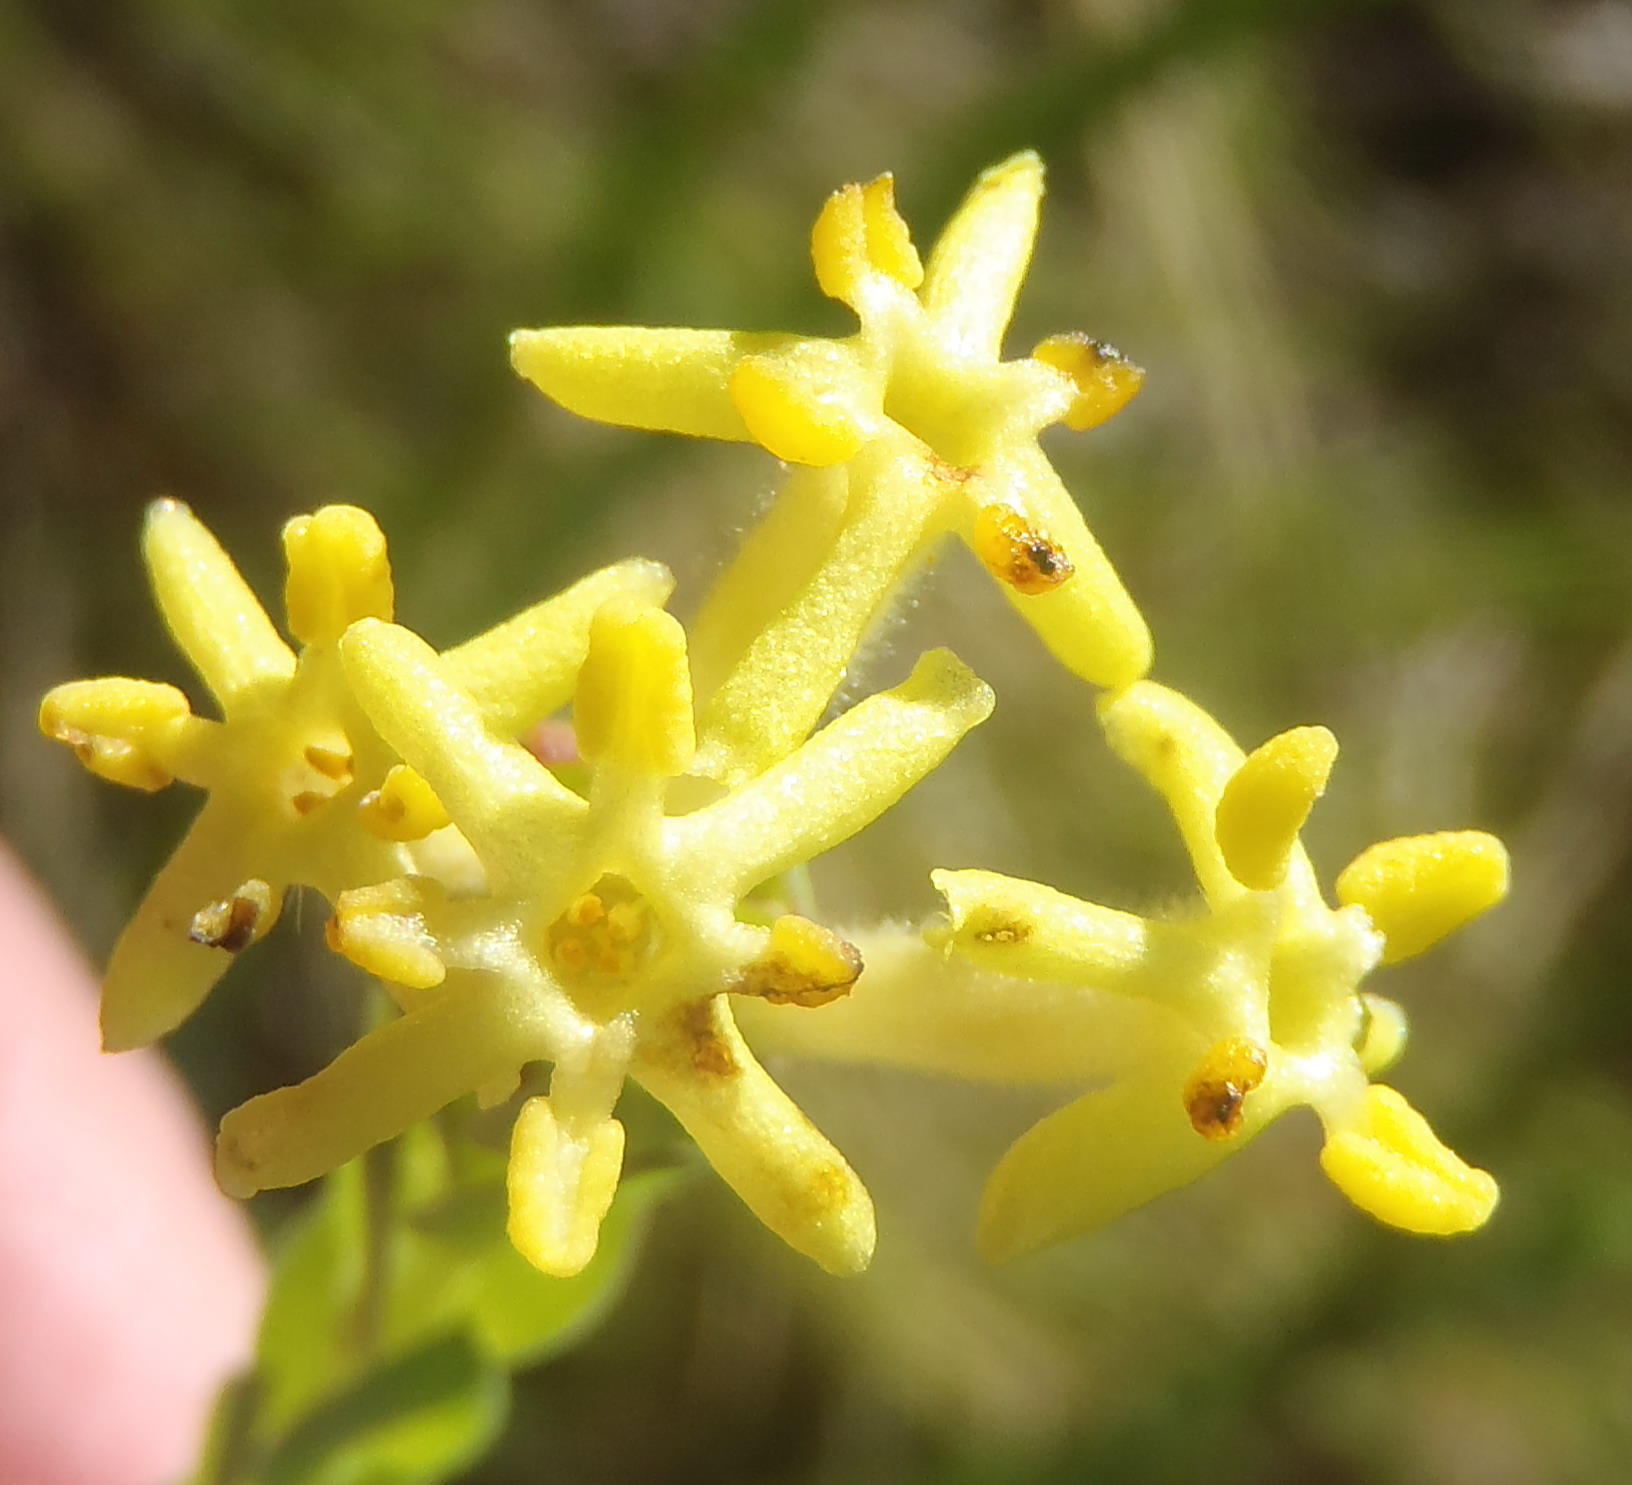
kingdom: Plantae
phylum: Tracheophyta
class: Magnoliopsida
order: Malvales
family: Thymelaeaceae
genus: Gnidia
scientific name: Gnidia oppositifolia
